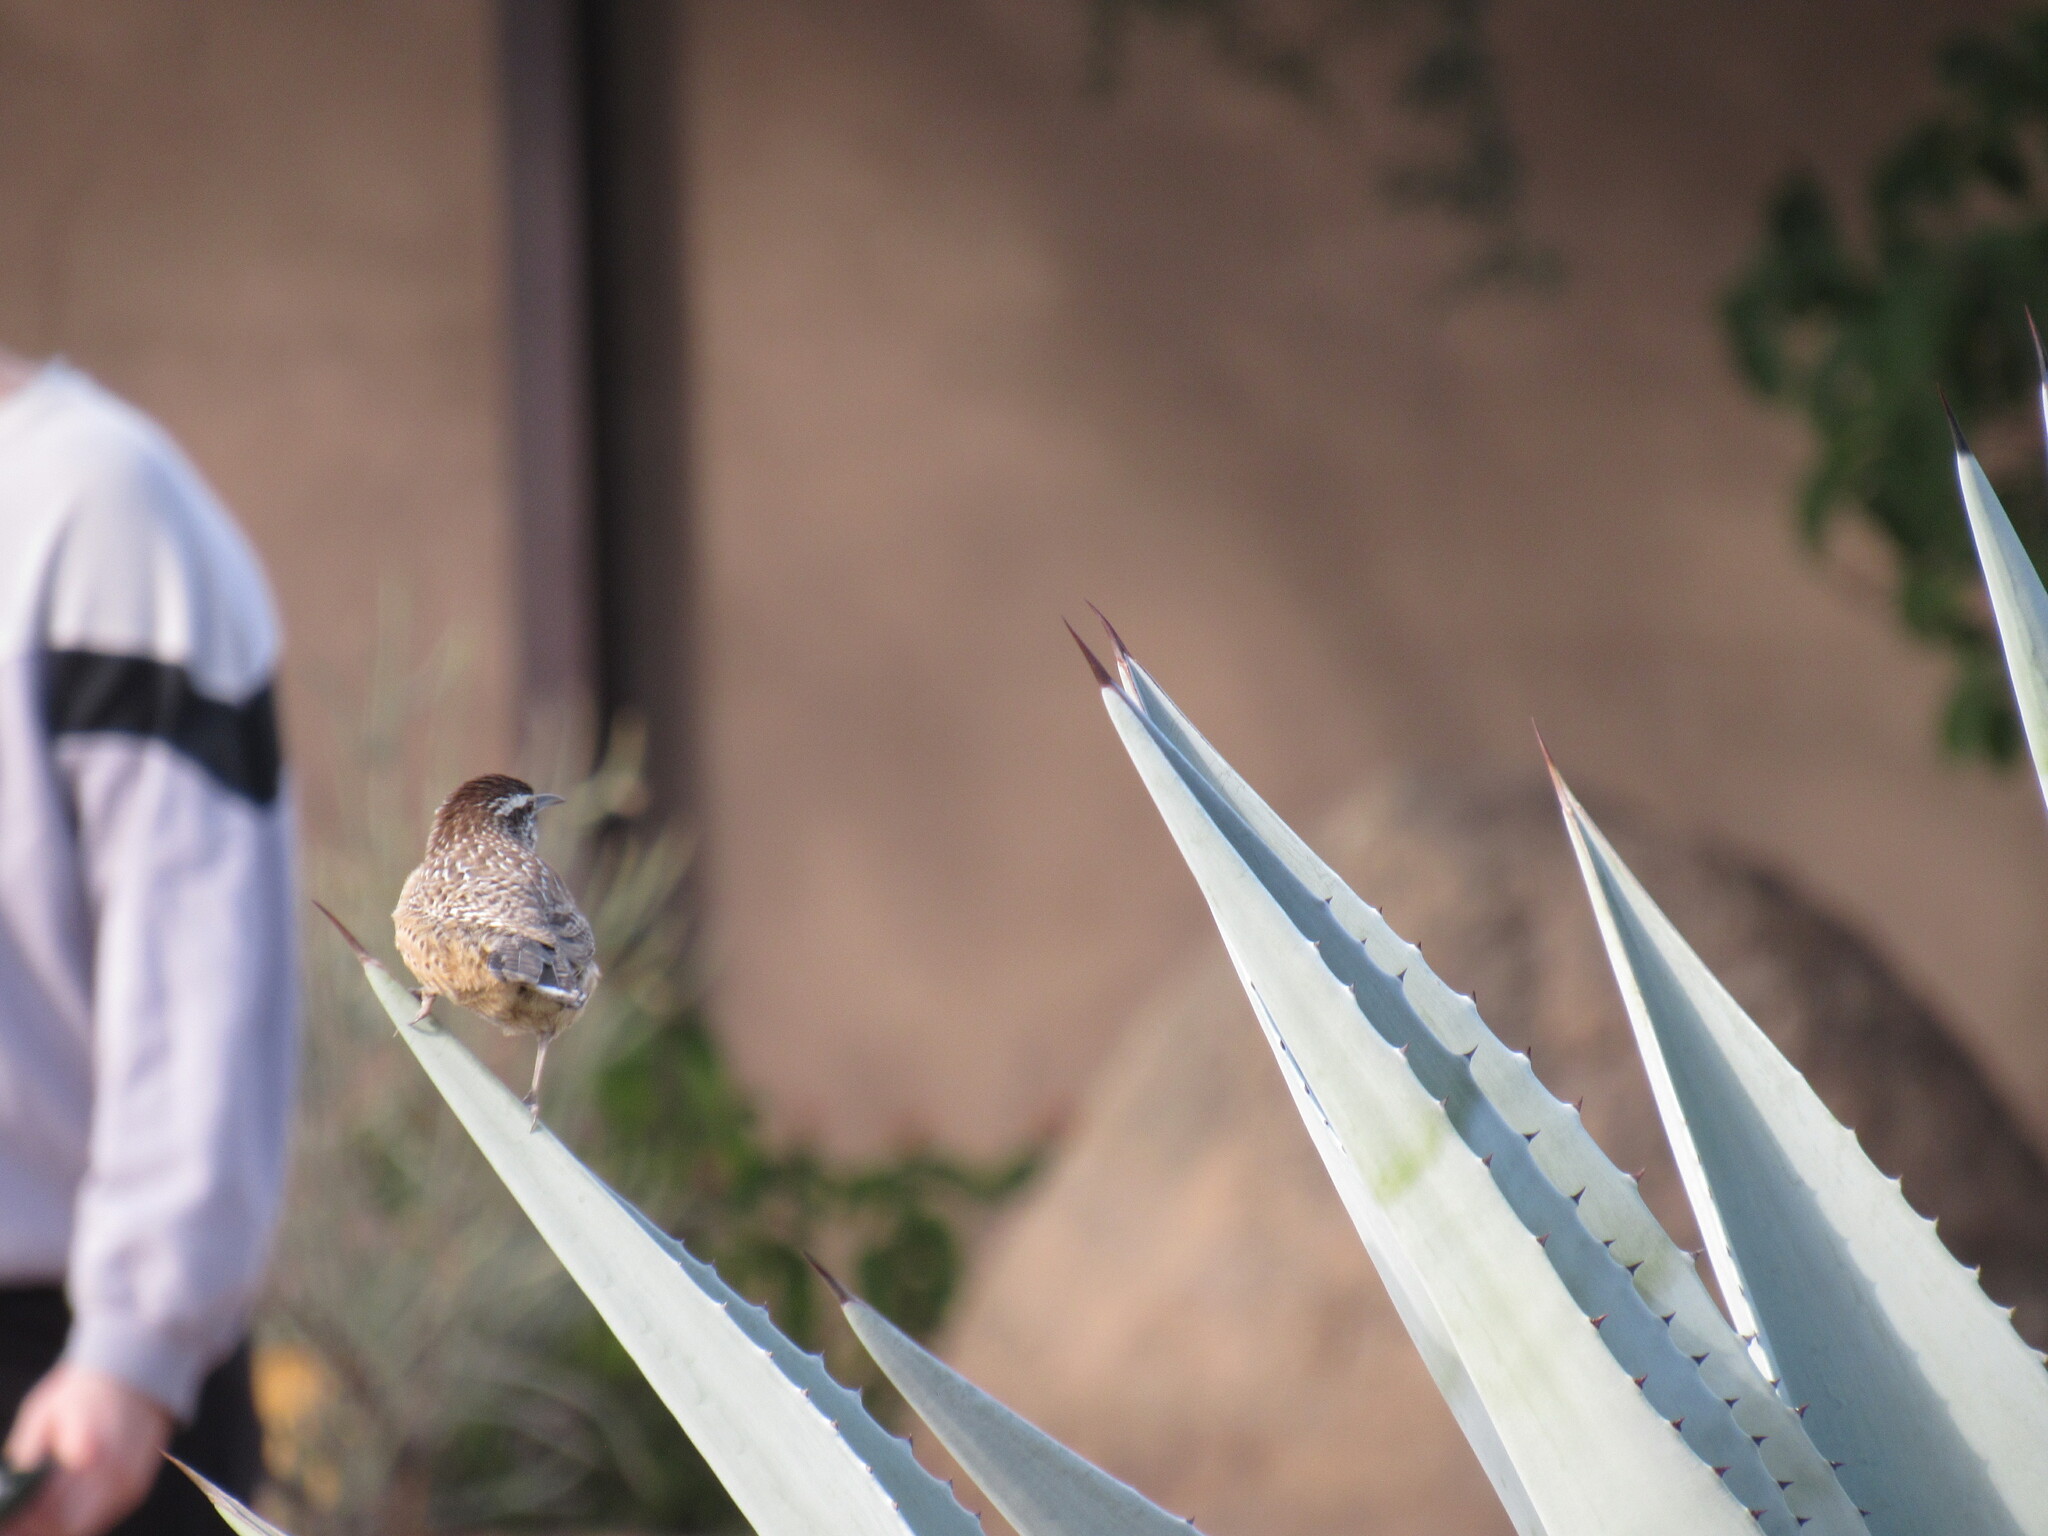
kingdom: Animalia
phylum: Chordata
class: Aves
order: Passeriformes
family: Troglodytidae
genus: Campylorhynchus
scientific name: Campylorhynchus brunneicapillus
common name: Cactus wren
